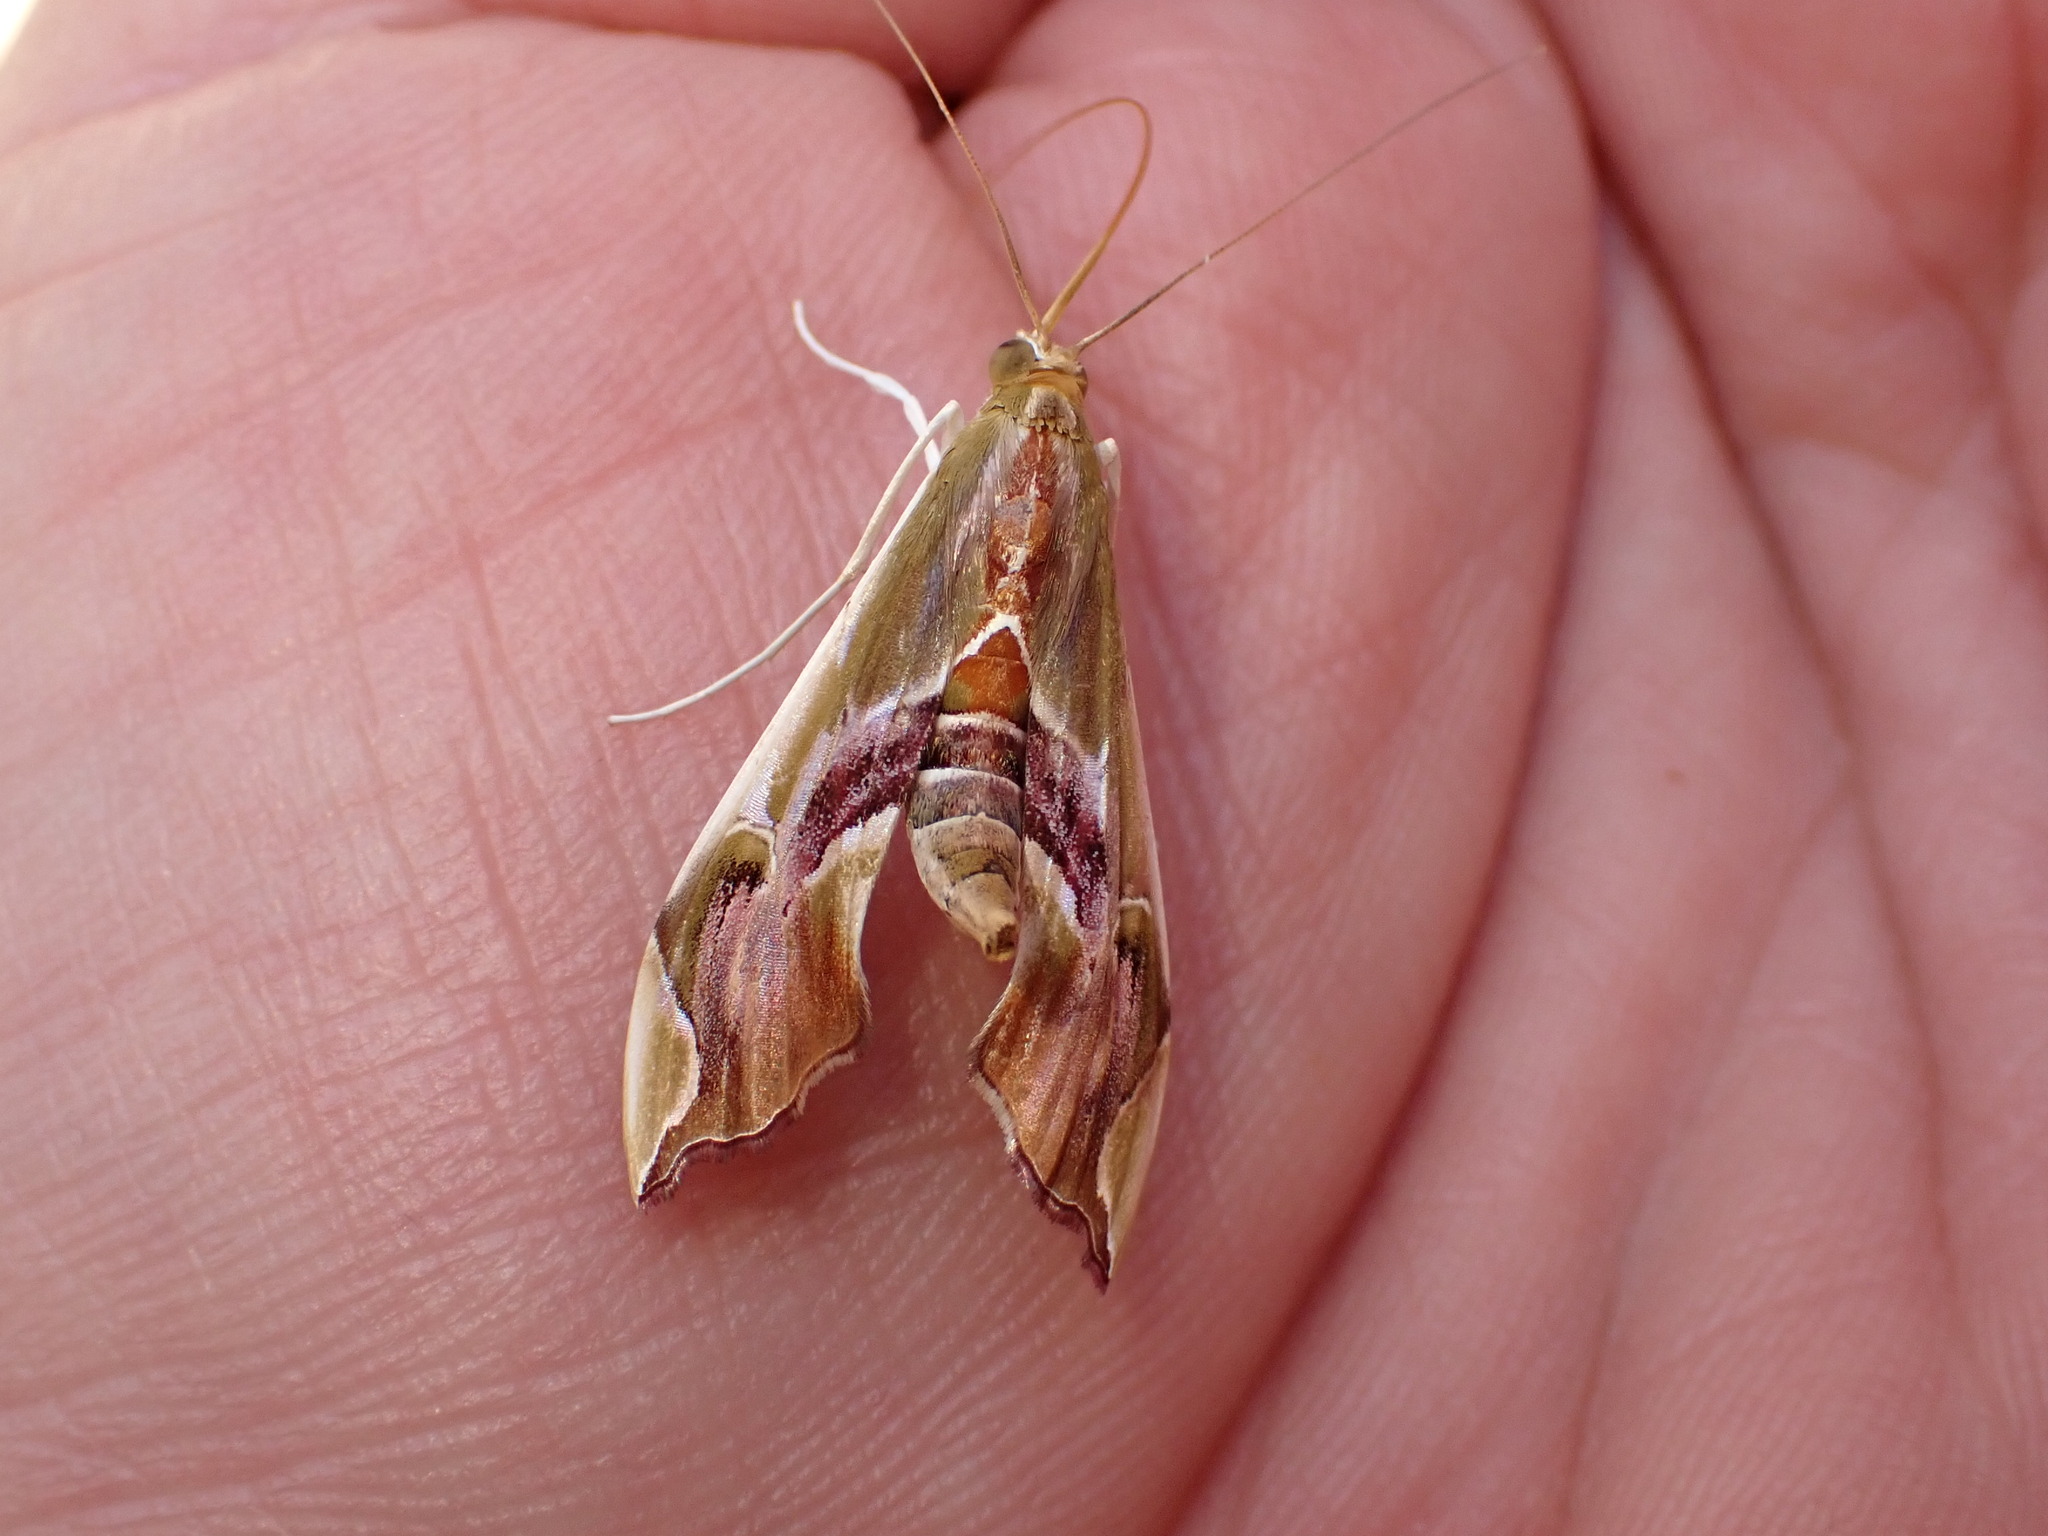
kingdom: Animalia
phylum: Arthropoda
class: Insecta
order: Lepidoptera
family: Crambidae
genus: Agathodes
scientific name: Agathodes musivalis
